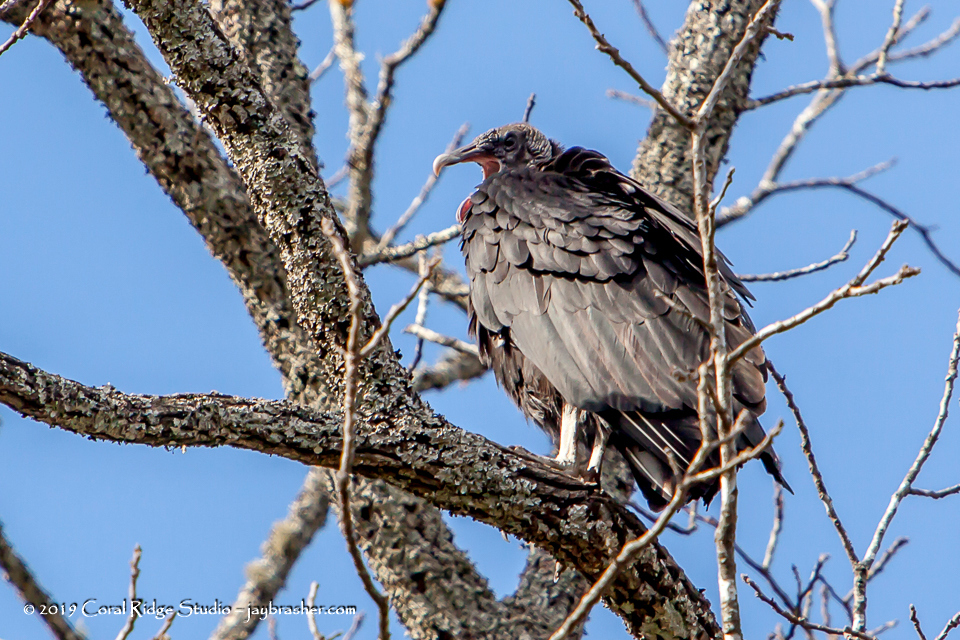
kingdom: Animalia
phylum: Chordata
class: Aves
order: Accipitriformes
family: Cathartidae
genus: Coragyps
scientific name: Coragyps atratus
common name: Black vulture
